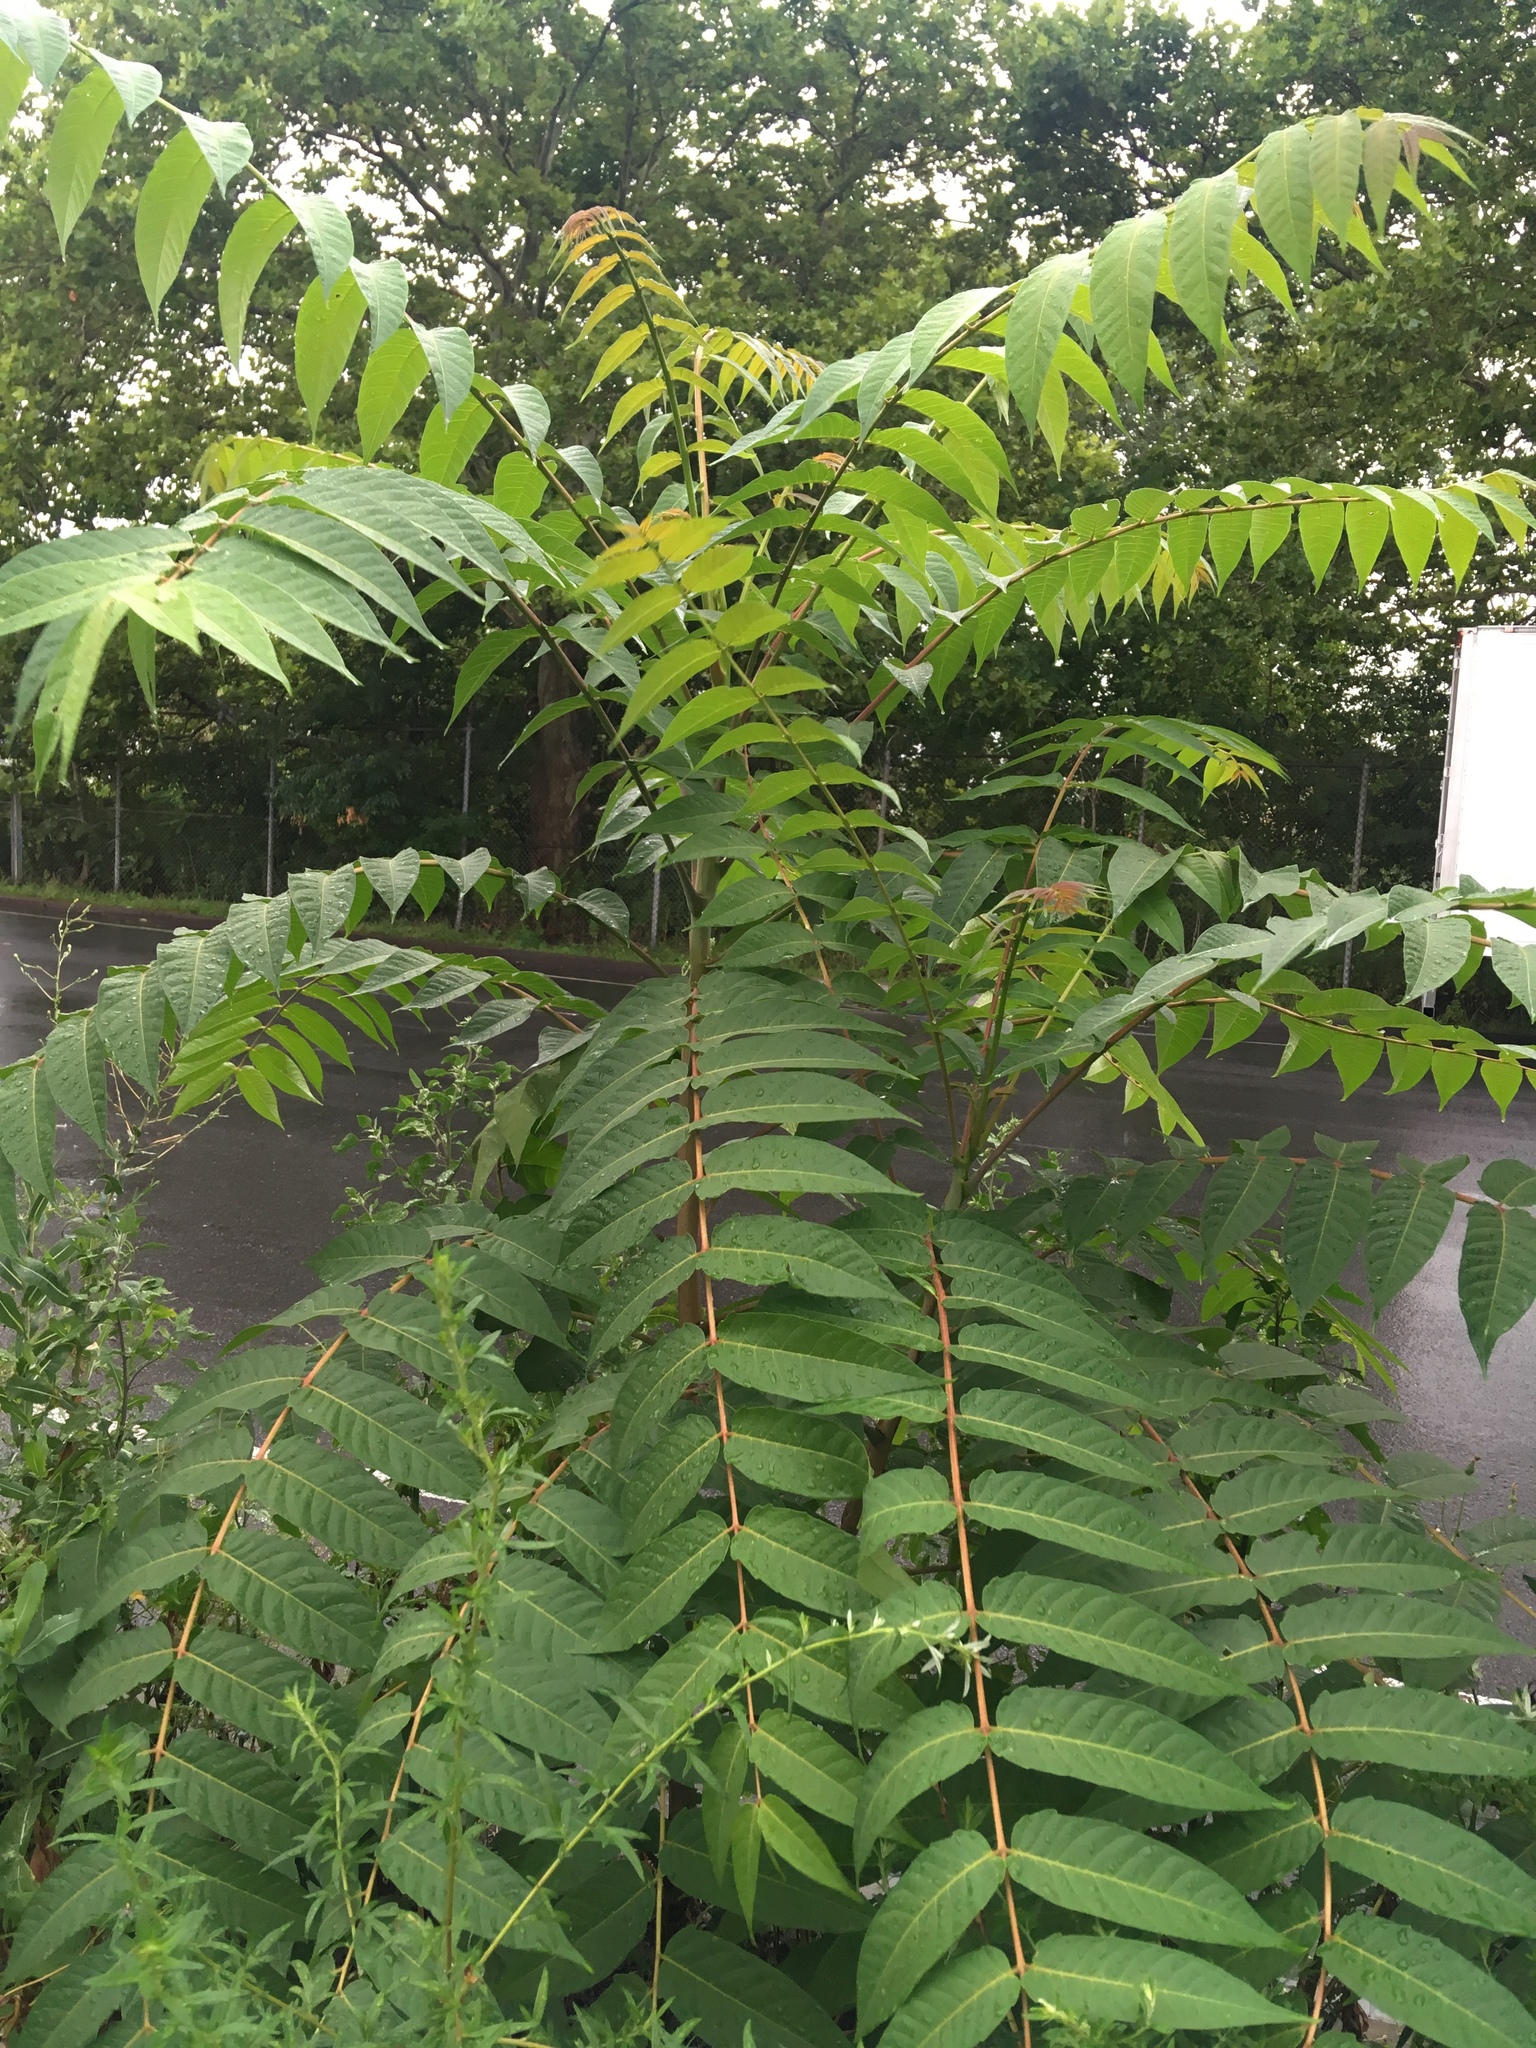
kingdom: Plantae
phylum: Tracheophyta
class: Magnoliopsida
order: Sapindales
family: Simaroubaceae
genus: Ailanthus
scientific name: Ailanthus altissima
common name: Tree-of-heaven
